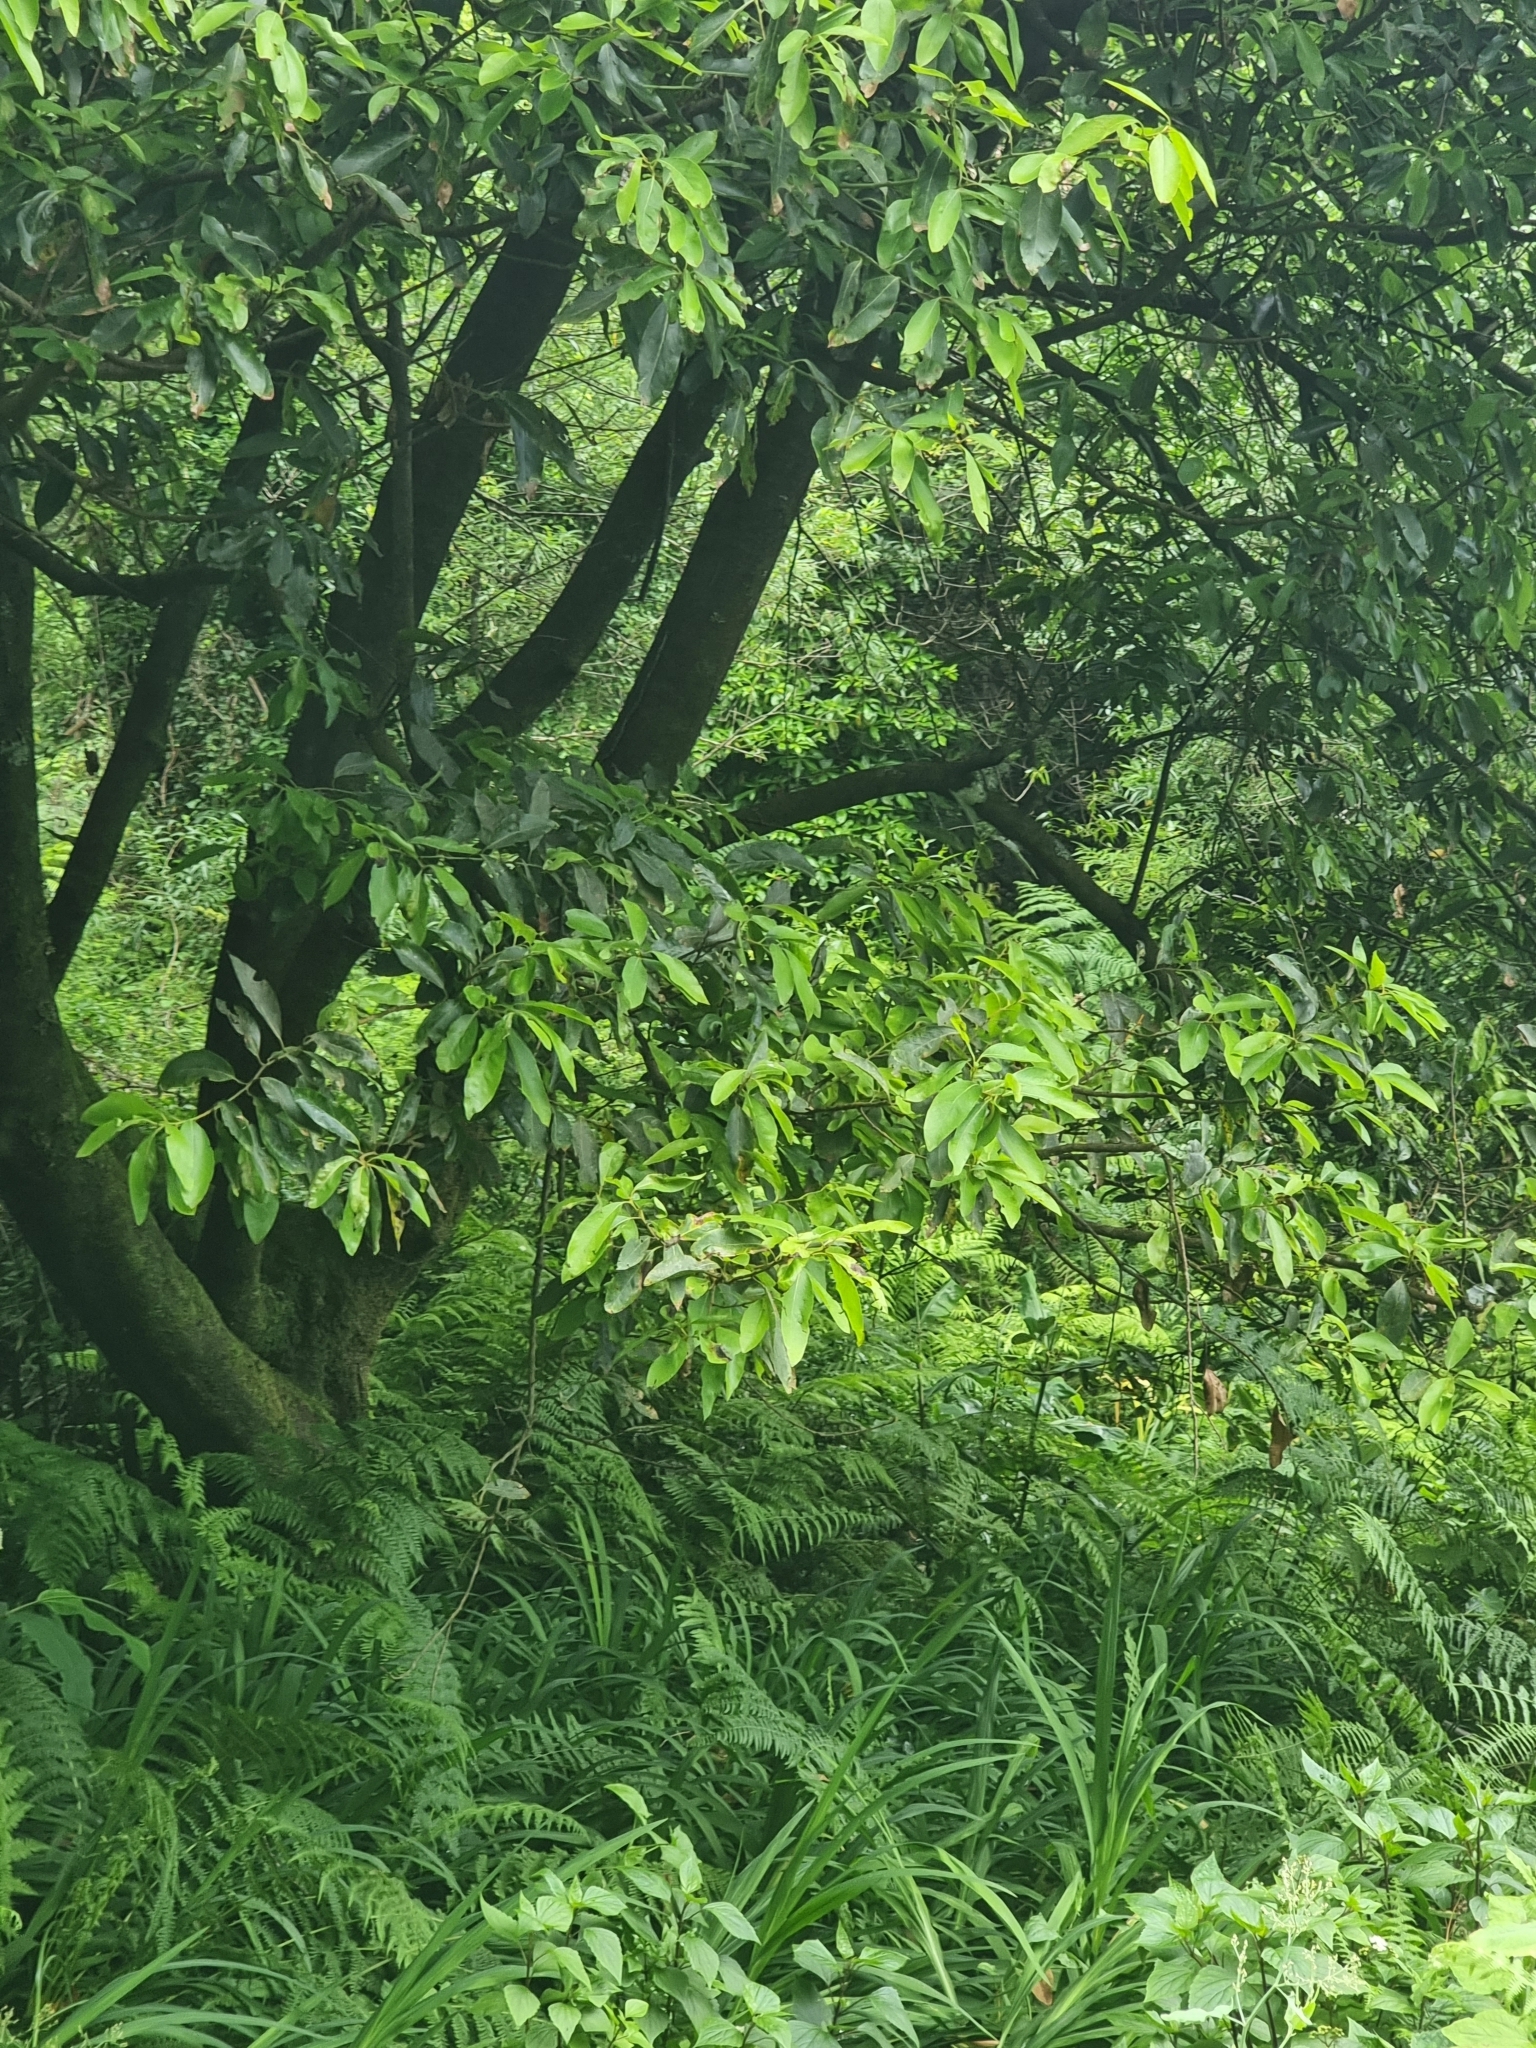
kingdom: Plantae
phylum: Tracheophyta
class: Magnoliopsida
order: Laurales
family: Lauraceae
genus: Laurus
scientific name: Laurus novocanariensis
